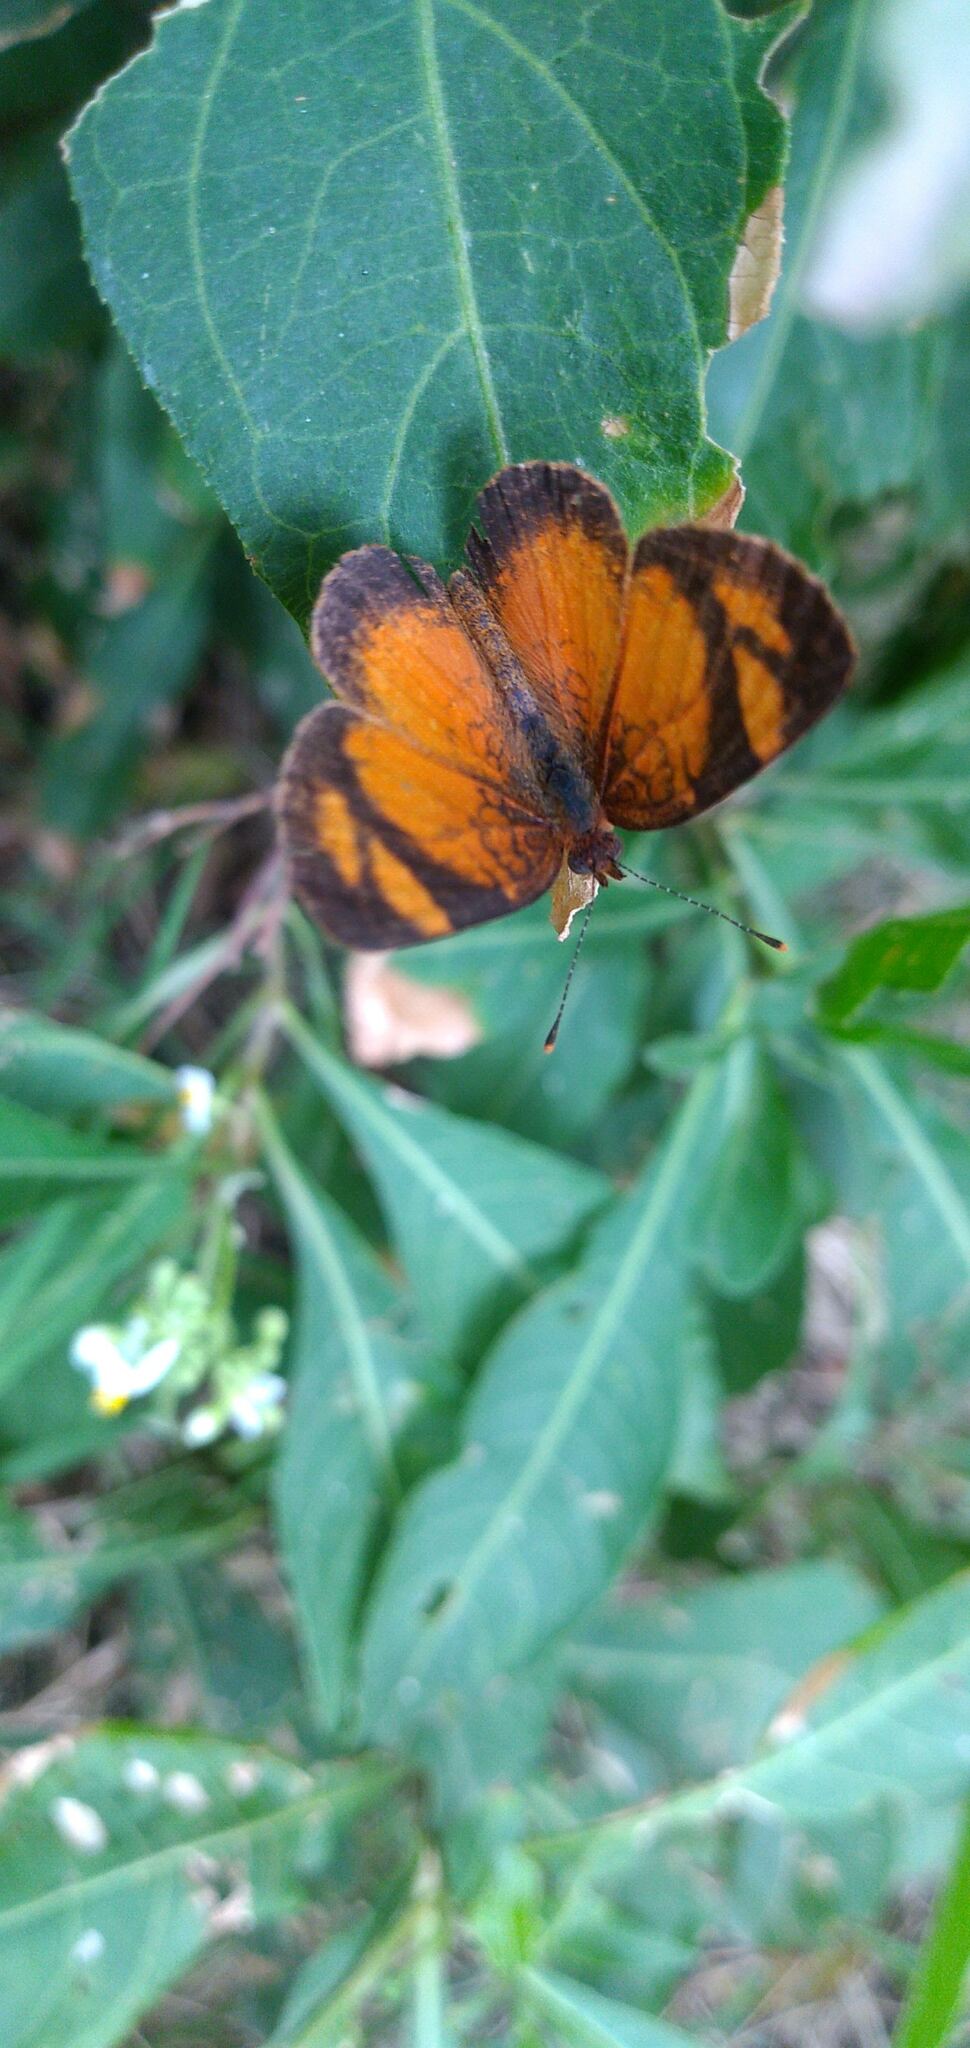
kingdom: Animalia
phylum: Arthropoda
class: Insecta
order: Lepidoptera
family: Nymphalidae
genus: Tegosa
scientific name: Tegosa claudina
